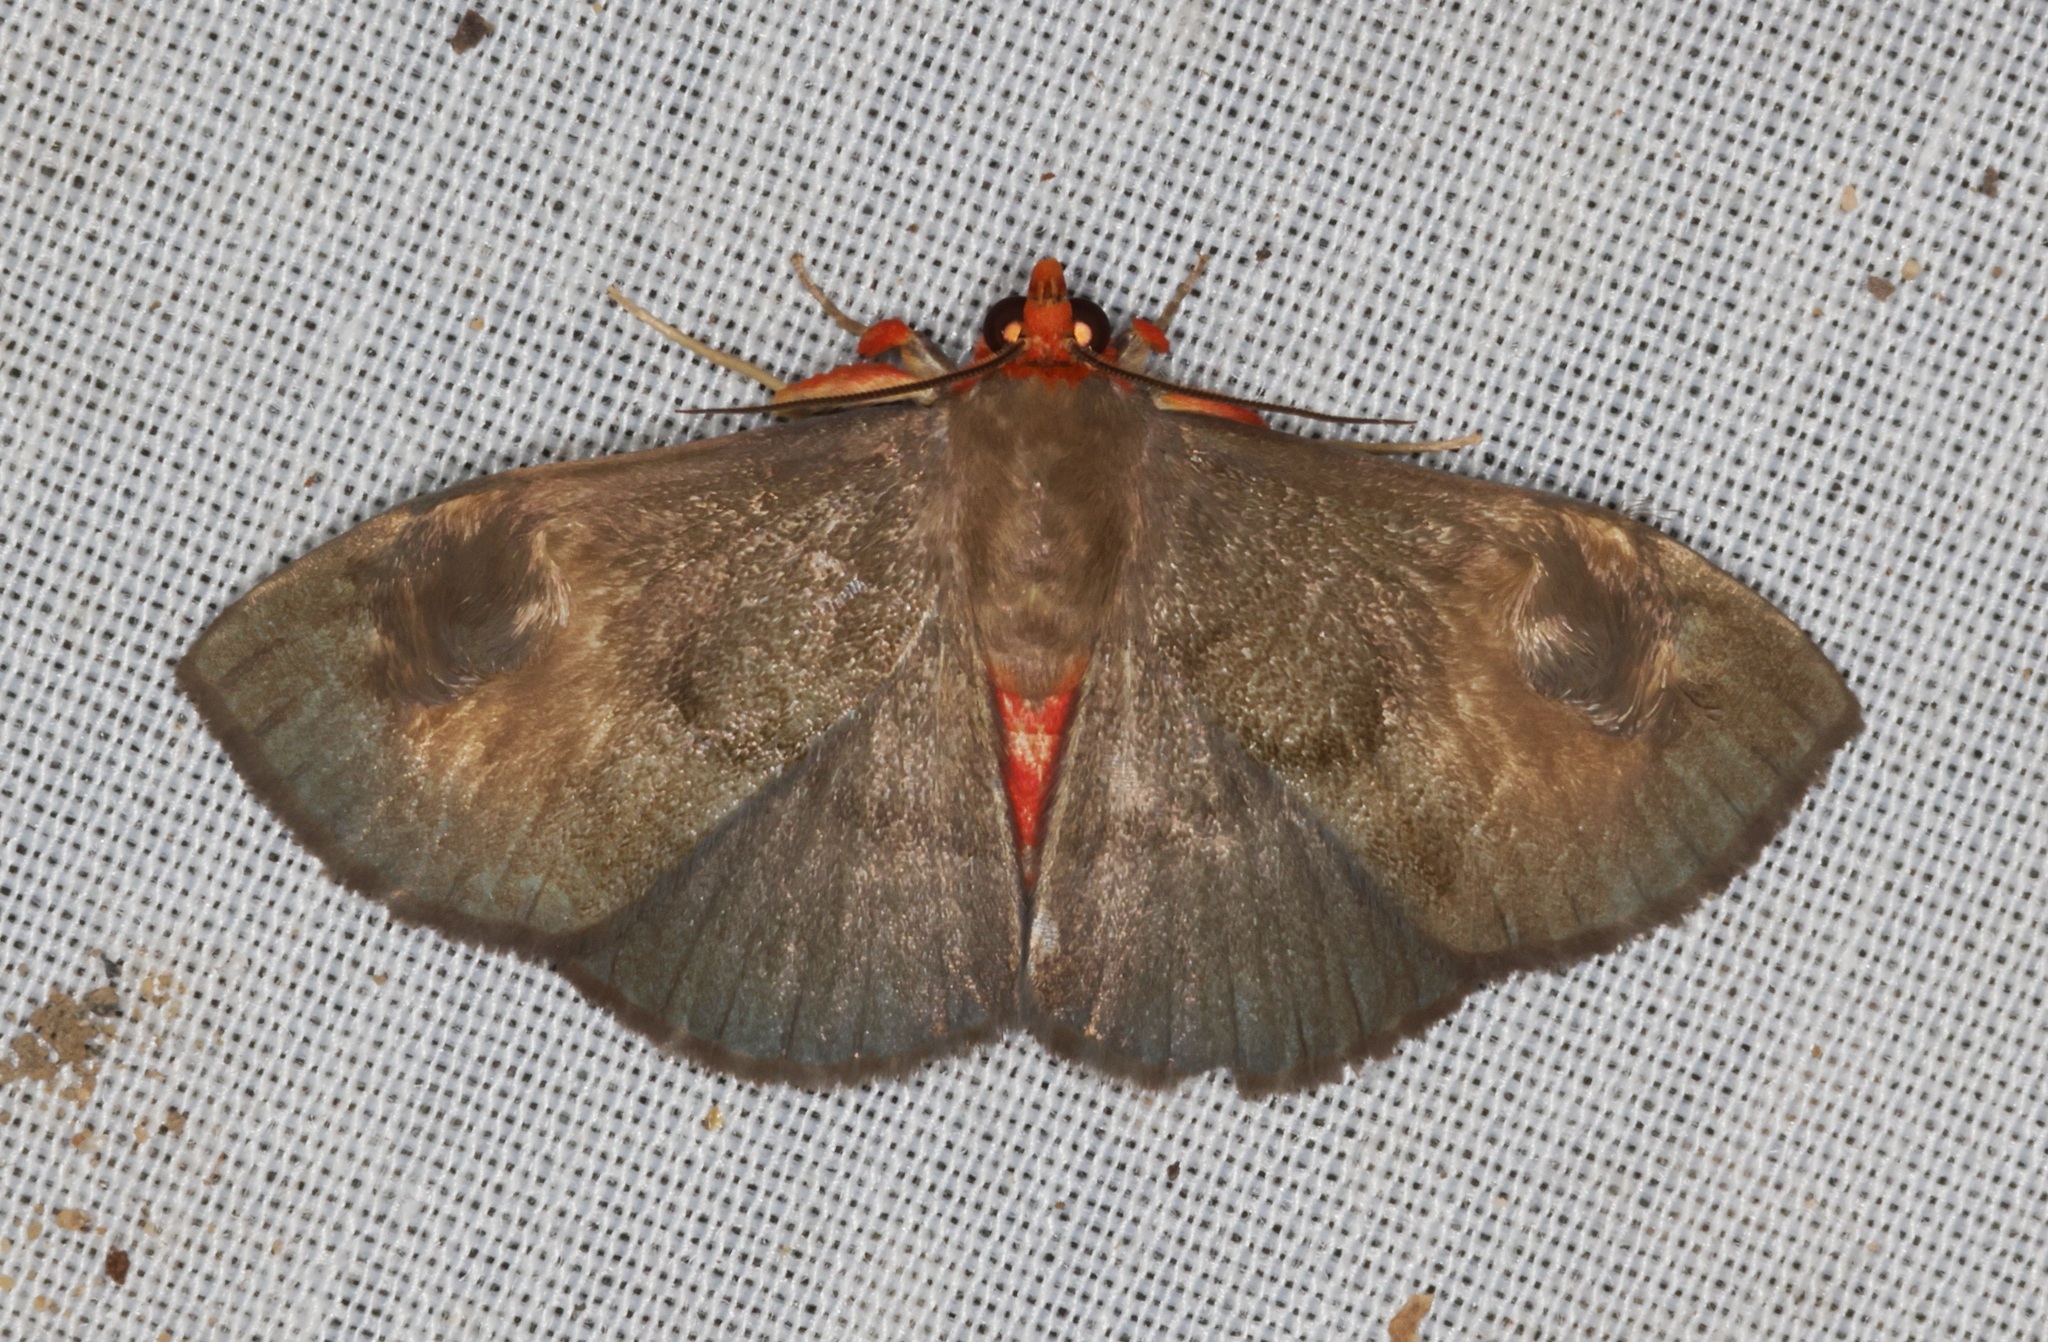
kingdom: Animalia
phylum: Arthropoda
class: Insecta
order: Lepidoptera
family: Erebidae
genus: Calesia
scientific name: Calesia dasyptera
